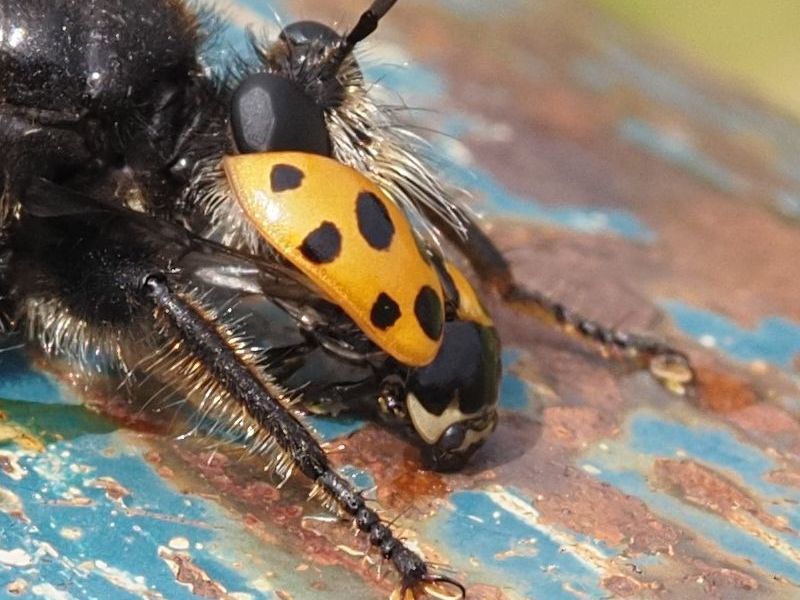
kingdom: Animalia
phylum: Arthropoda
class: Insecta
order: Coleoptera
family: Coccinellidae
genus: Ceratomegilla
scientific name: Ceratomegilla notata
